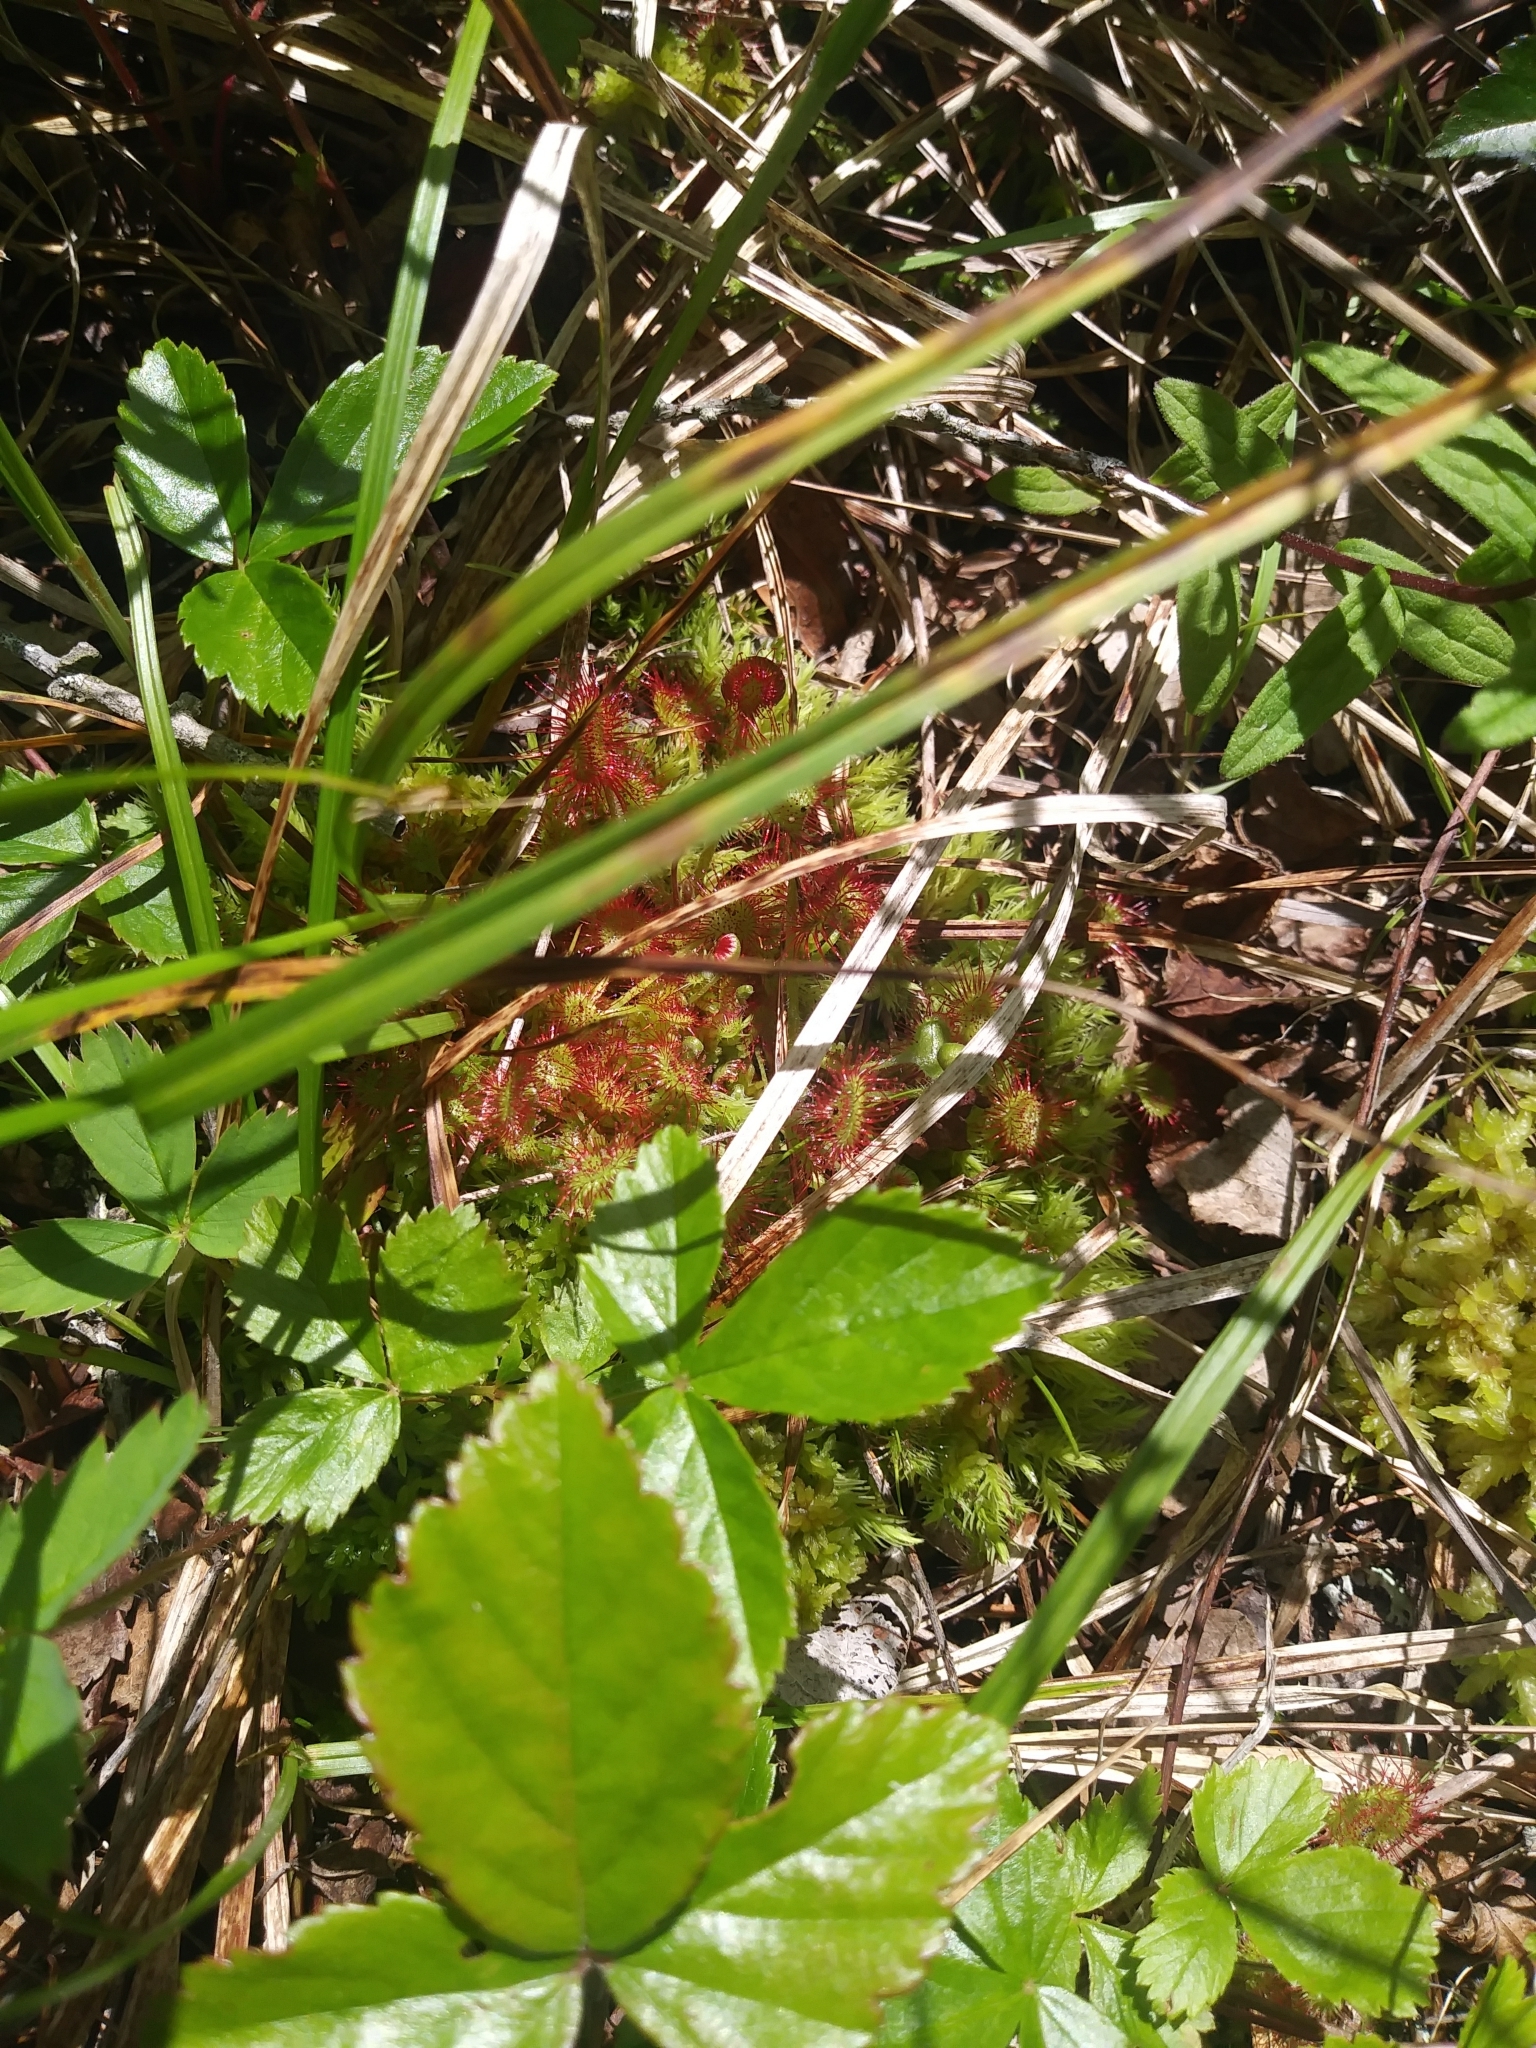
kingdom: Plantae
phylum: Tracheophyta
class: Magnoliopsida
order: Caryophyllales
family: Droseraceae
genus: Drosera
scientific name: Drosera rotundifolia
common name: Round-leaved sundew
